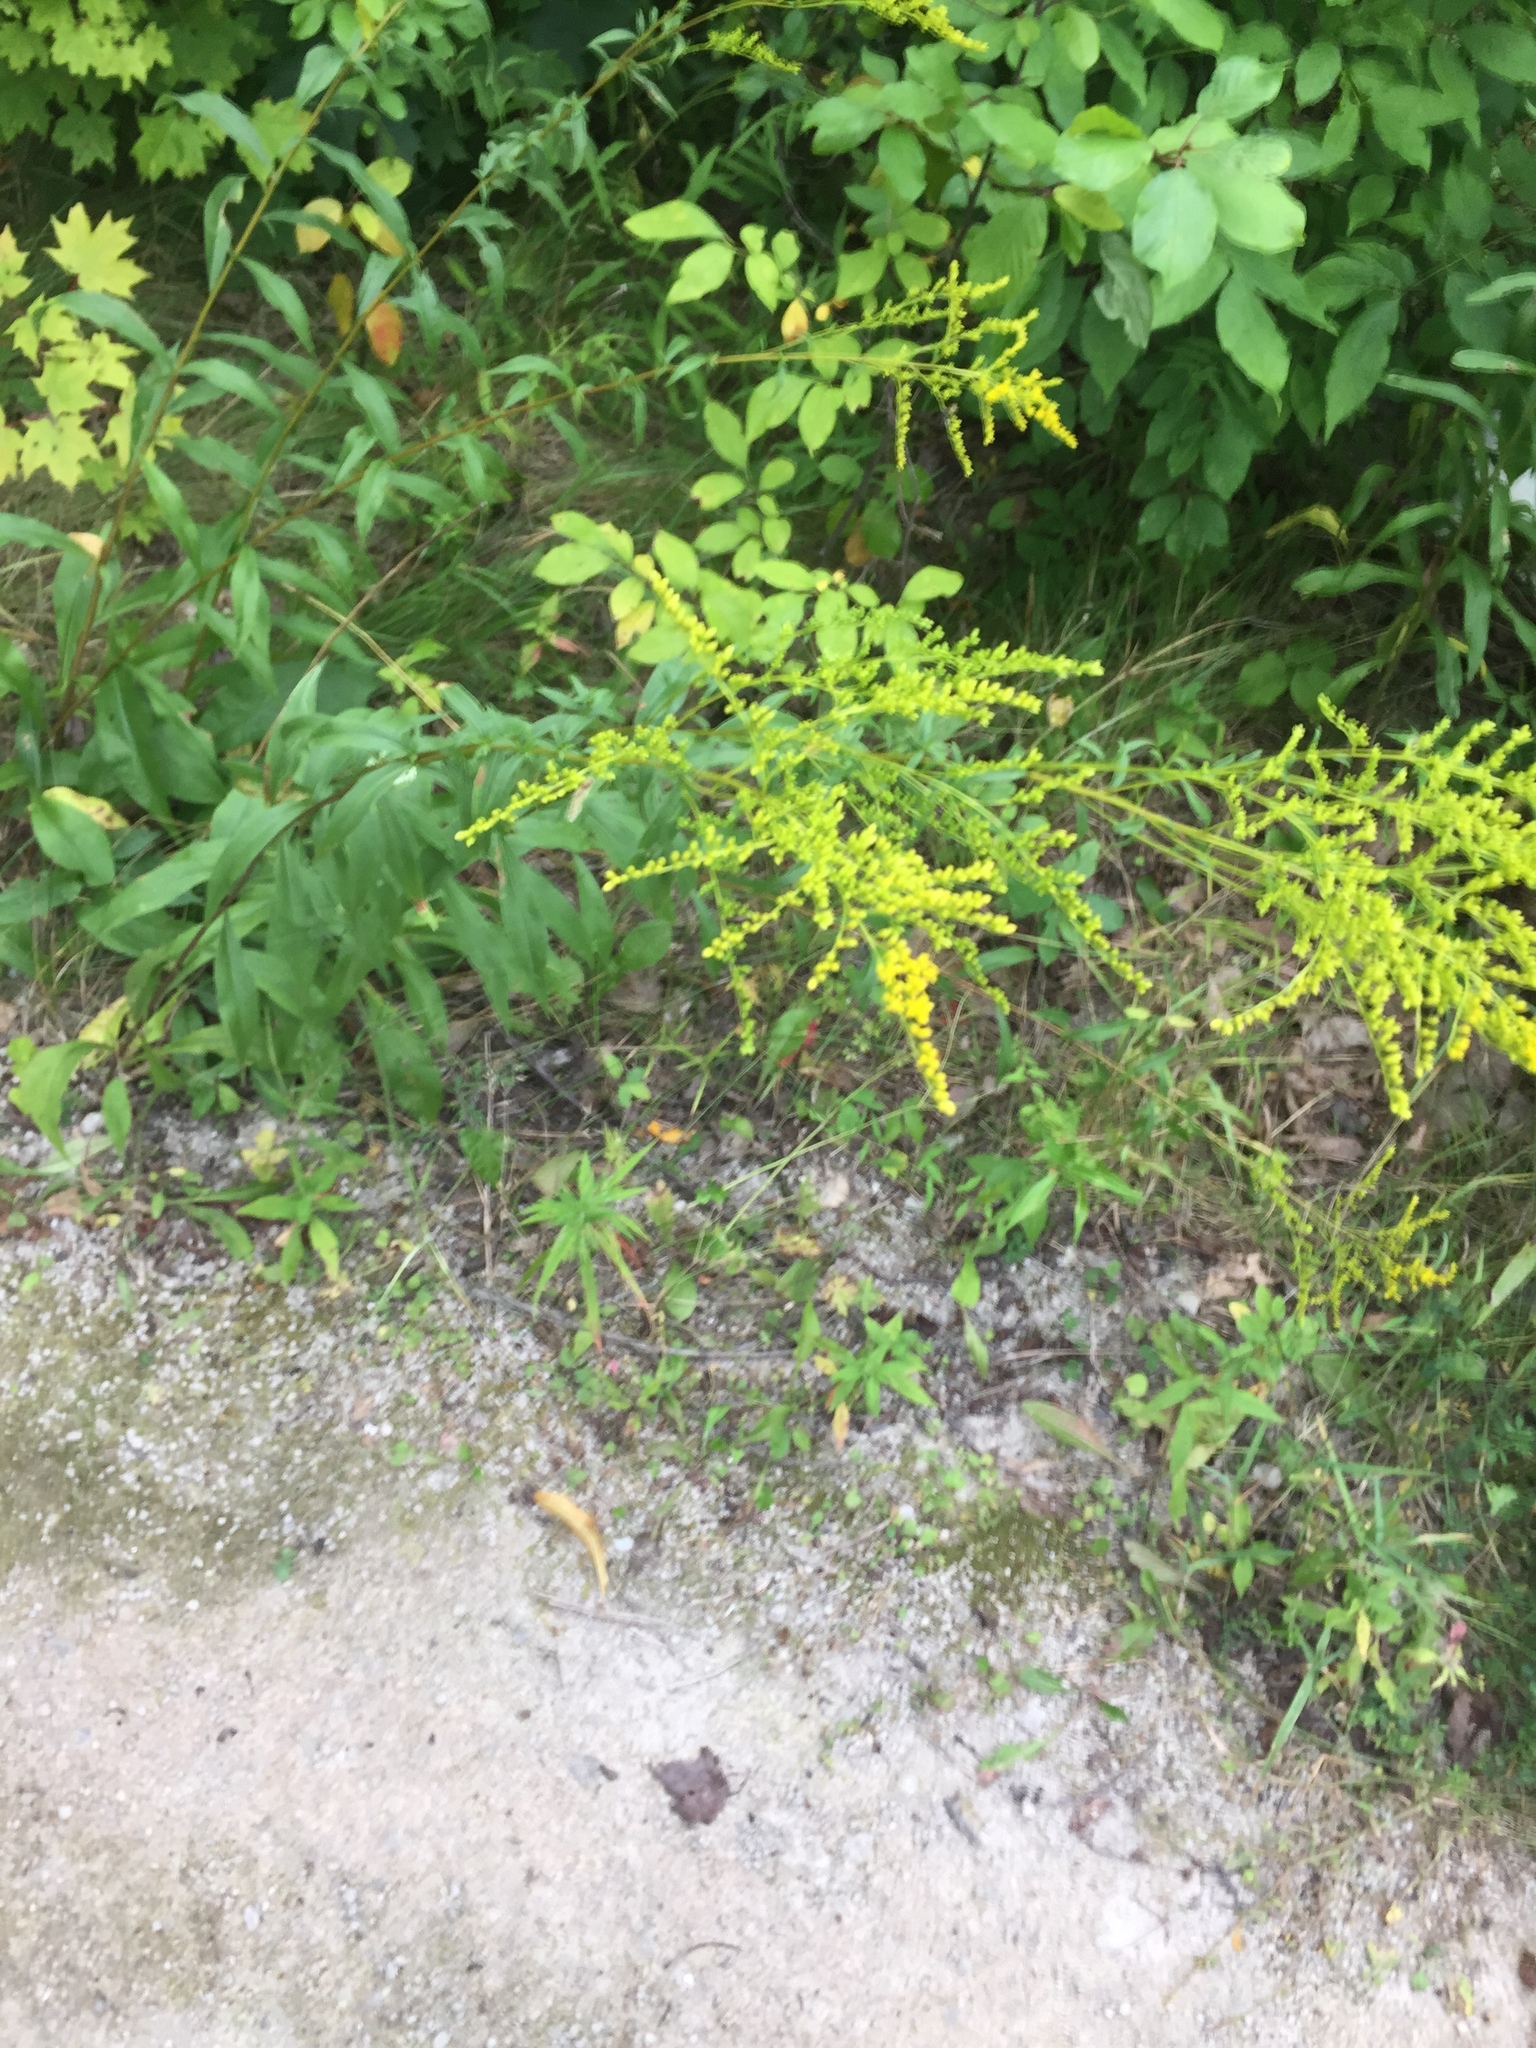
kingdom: Plantae
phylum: Tracheophyta
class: Magnoliopsida
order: Asterales
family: Asteraceae
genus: Solidago
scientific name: Solidago juncea
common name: Early goldenrod
